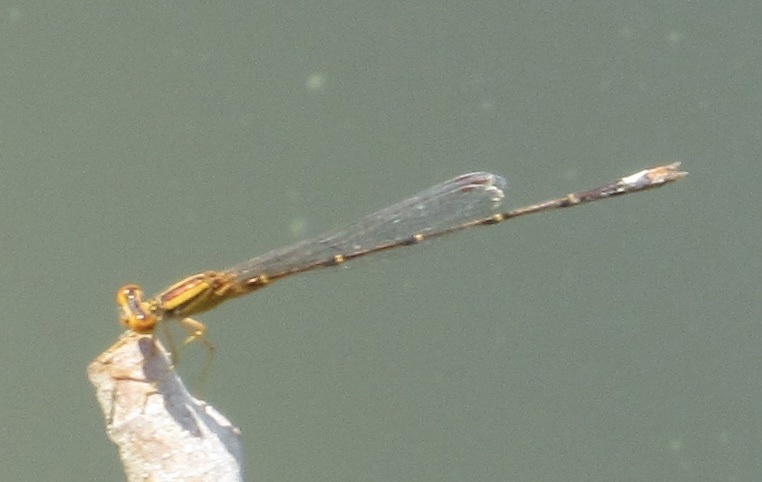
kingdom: Animalia
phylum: Arthropoda
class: Insecta
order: Odonata
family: Coenagrionidae
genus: Enallagma
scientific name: Enallagma signatum
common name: Orange bluet
